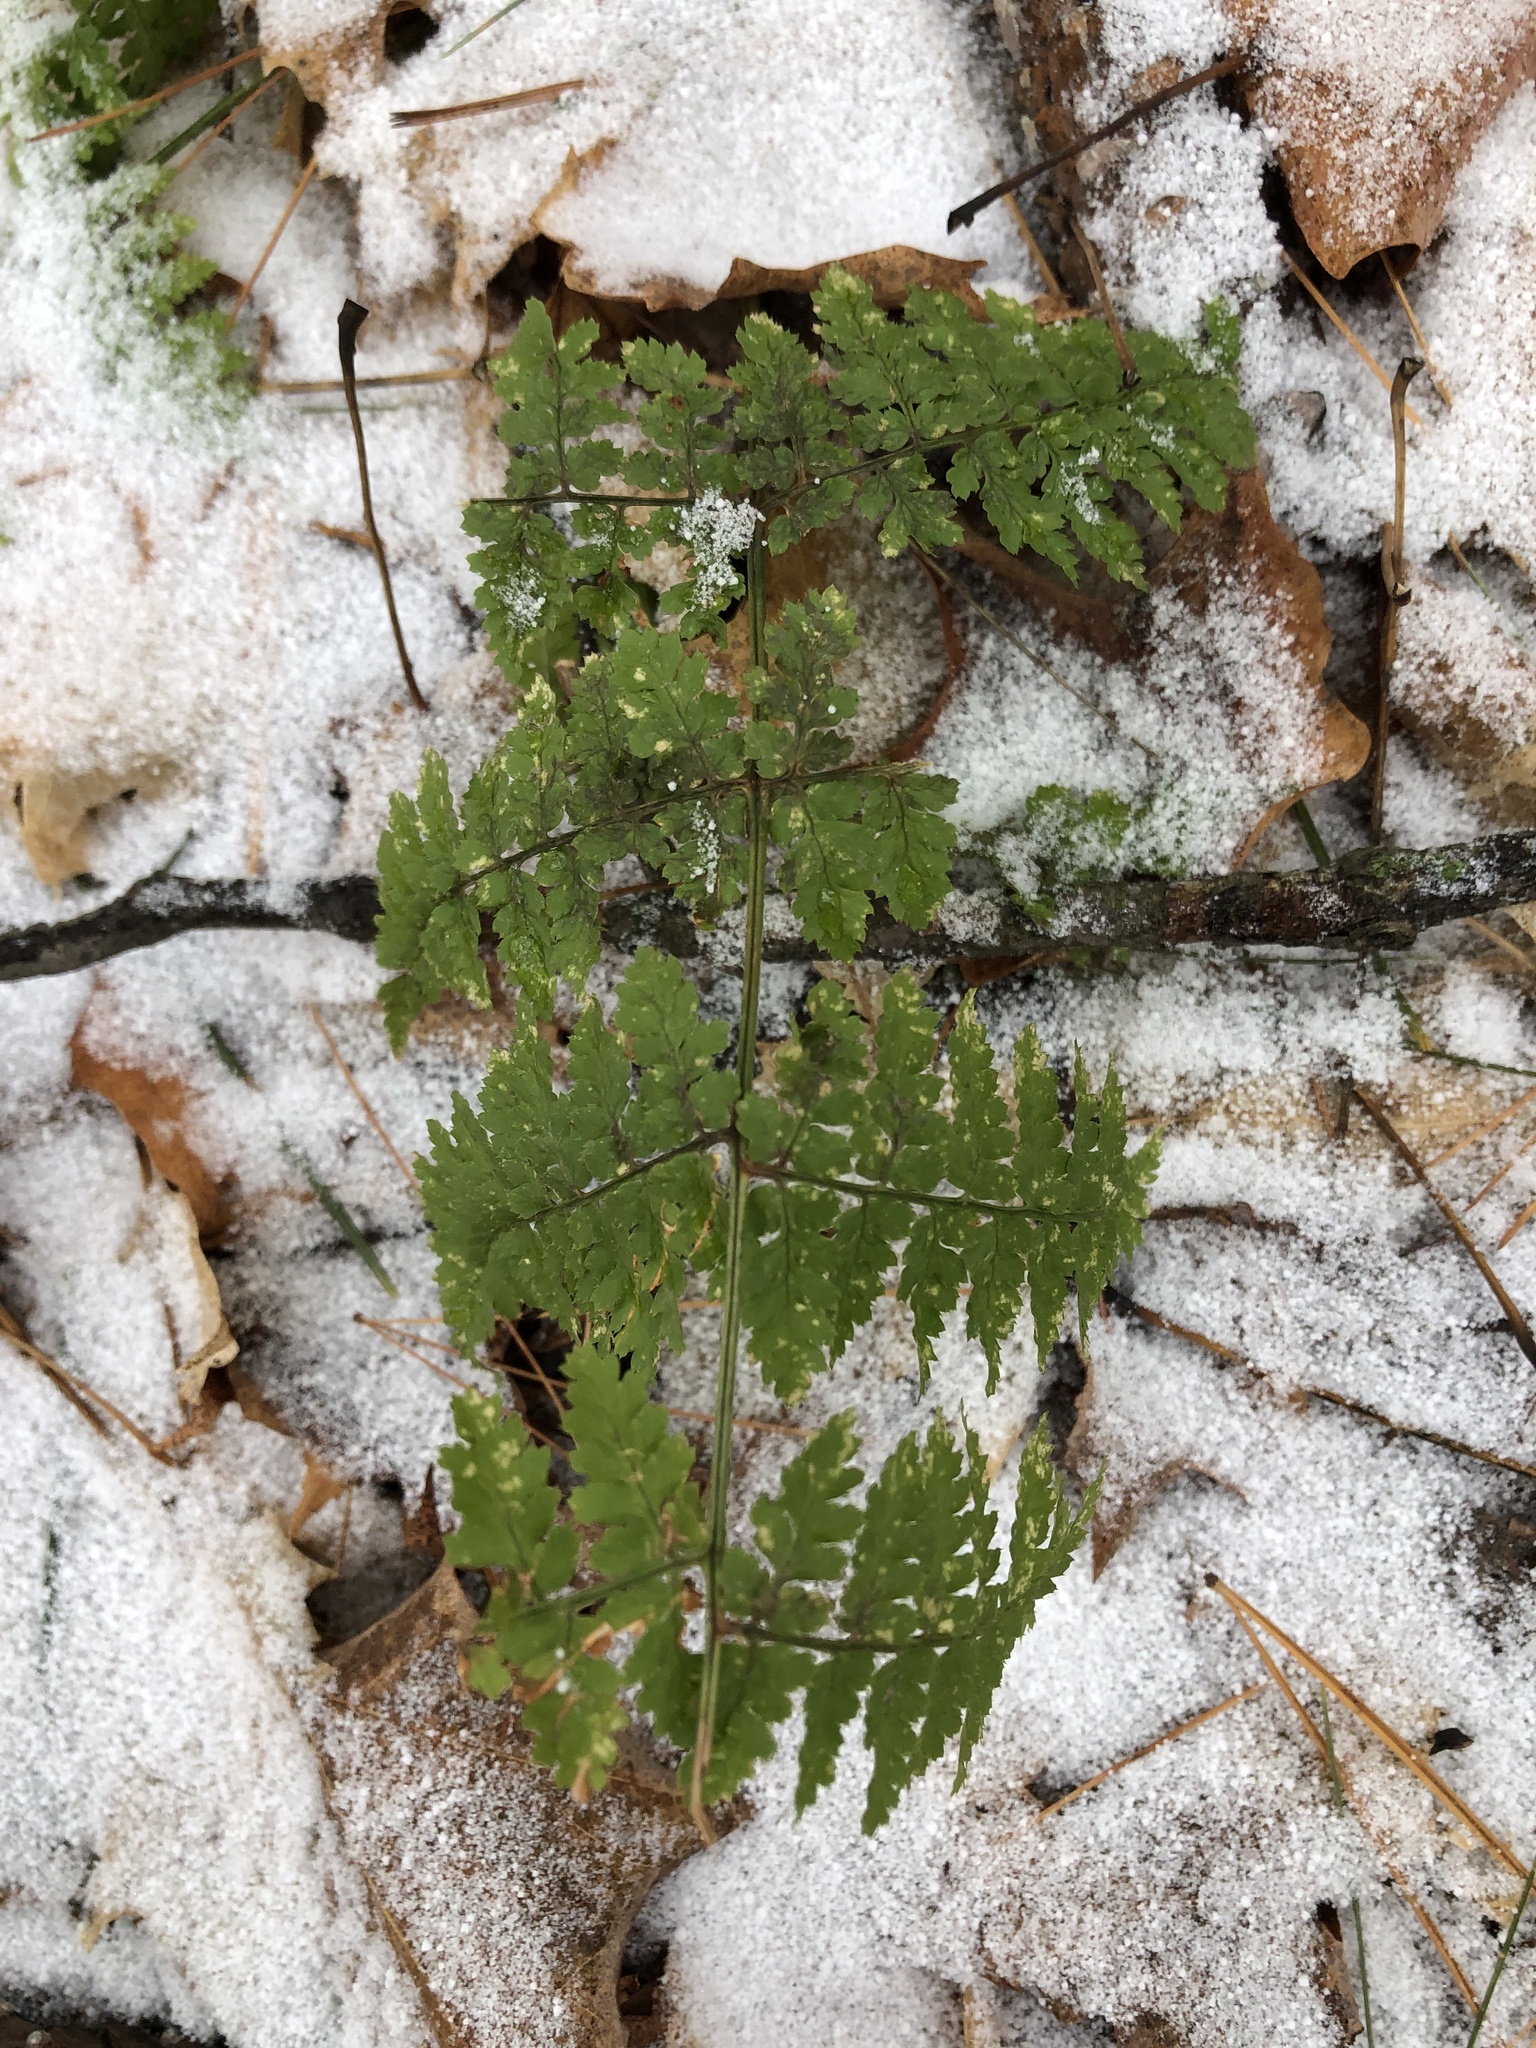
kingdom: Plantae
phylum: Tracheophyta
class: Polypodiopsida
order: Polypodiales
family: Dryopteridaceae
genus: Dryopteris
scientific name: Dryopteris intermedia
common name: Evergreen wood fern
